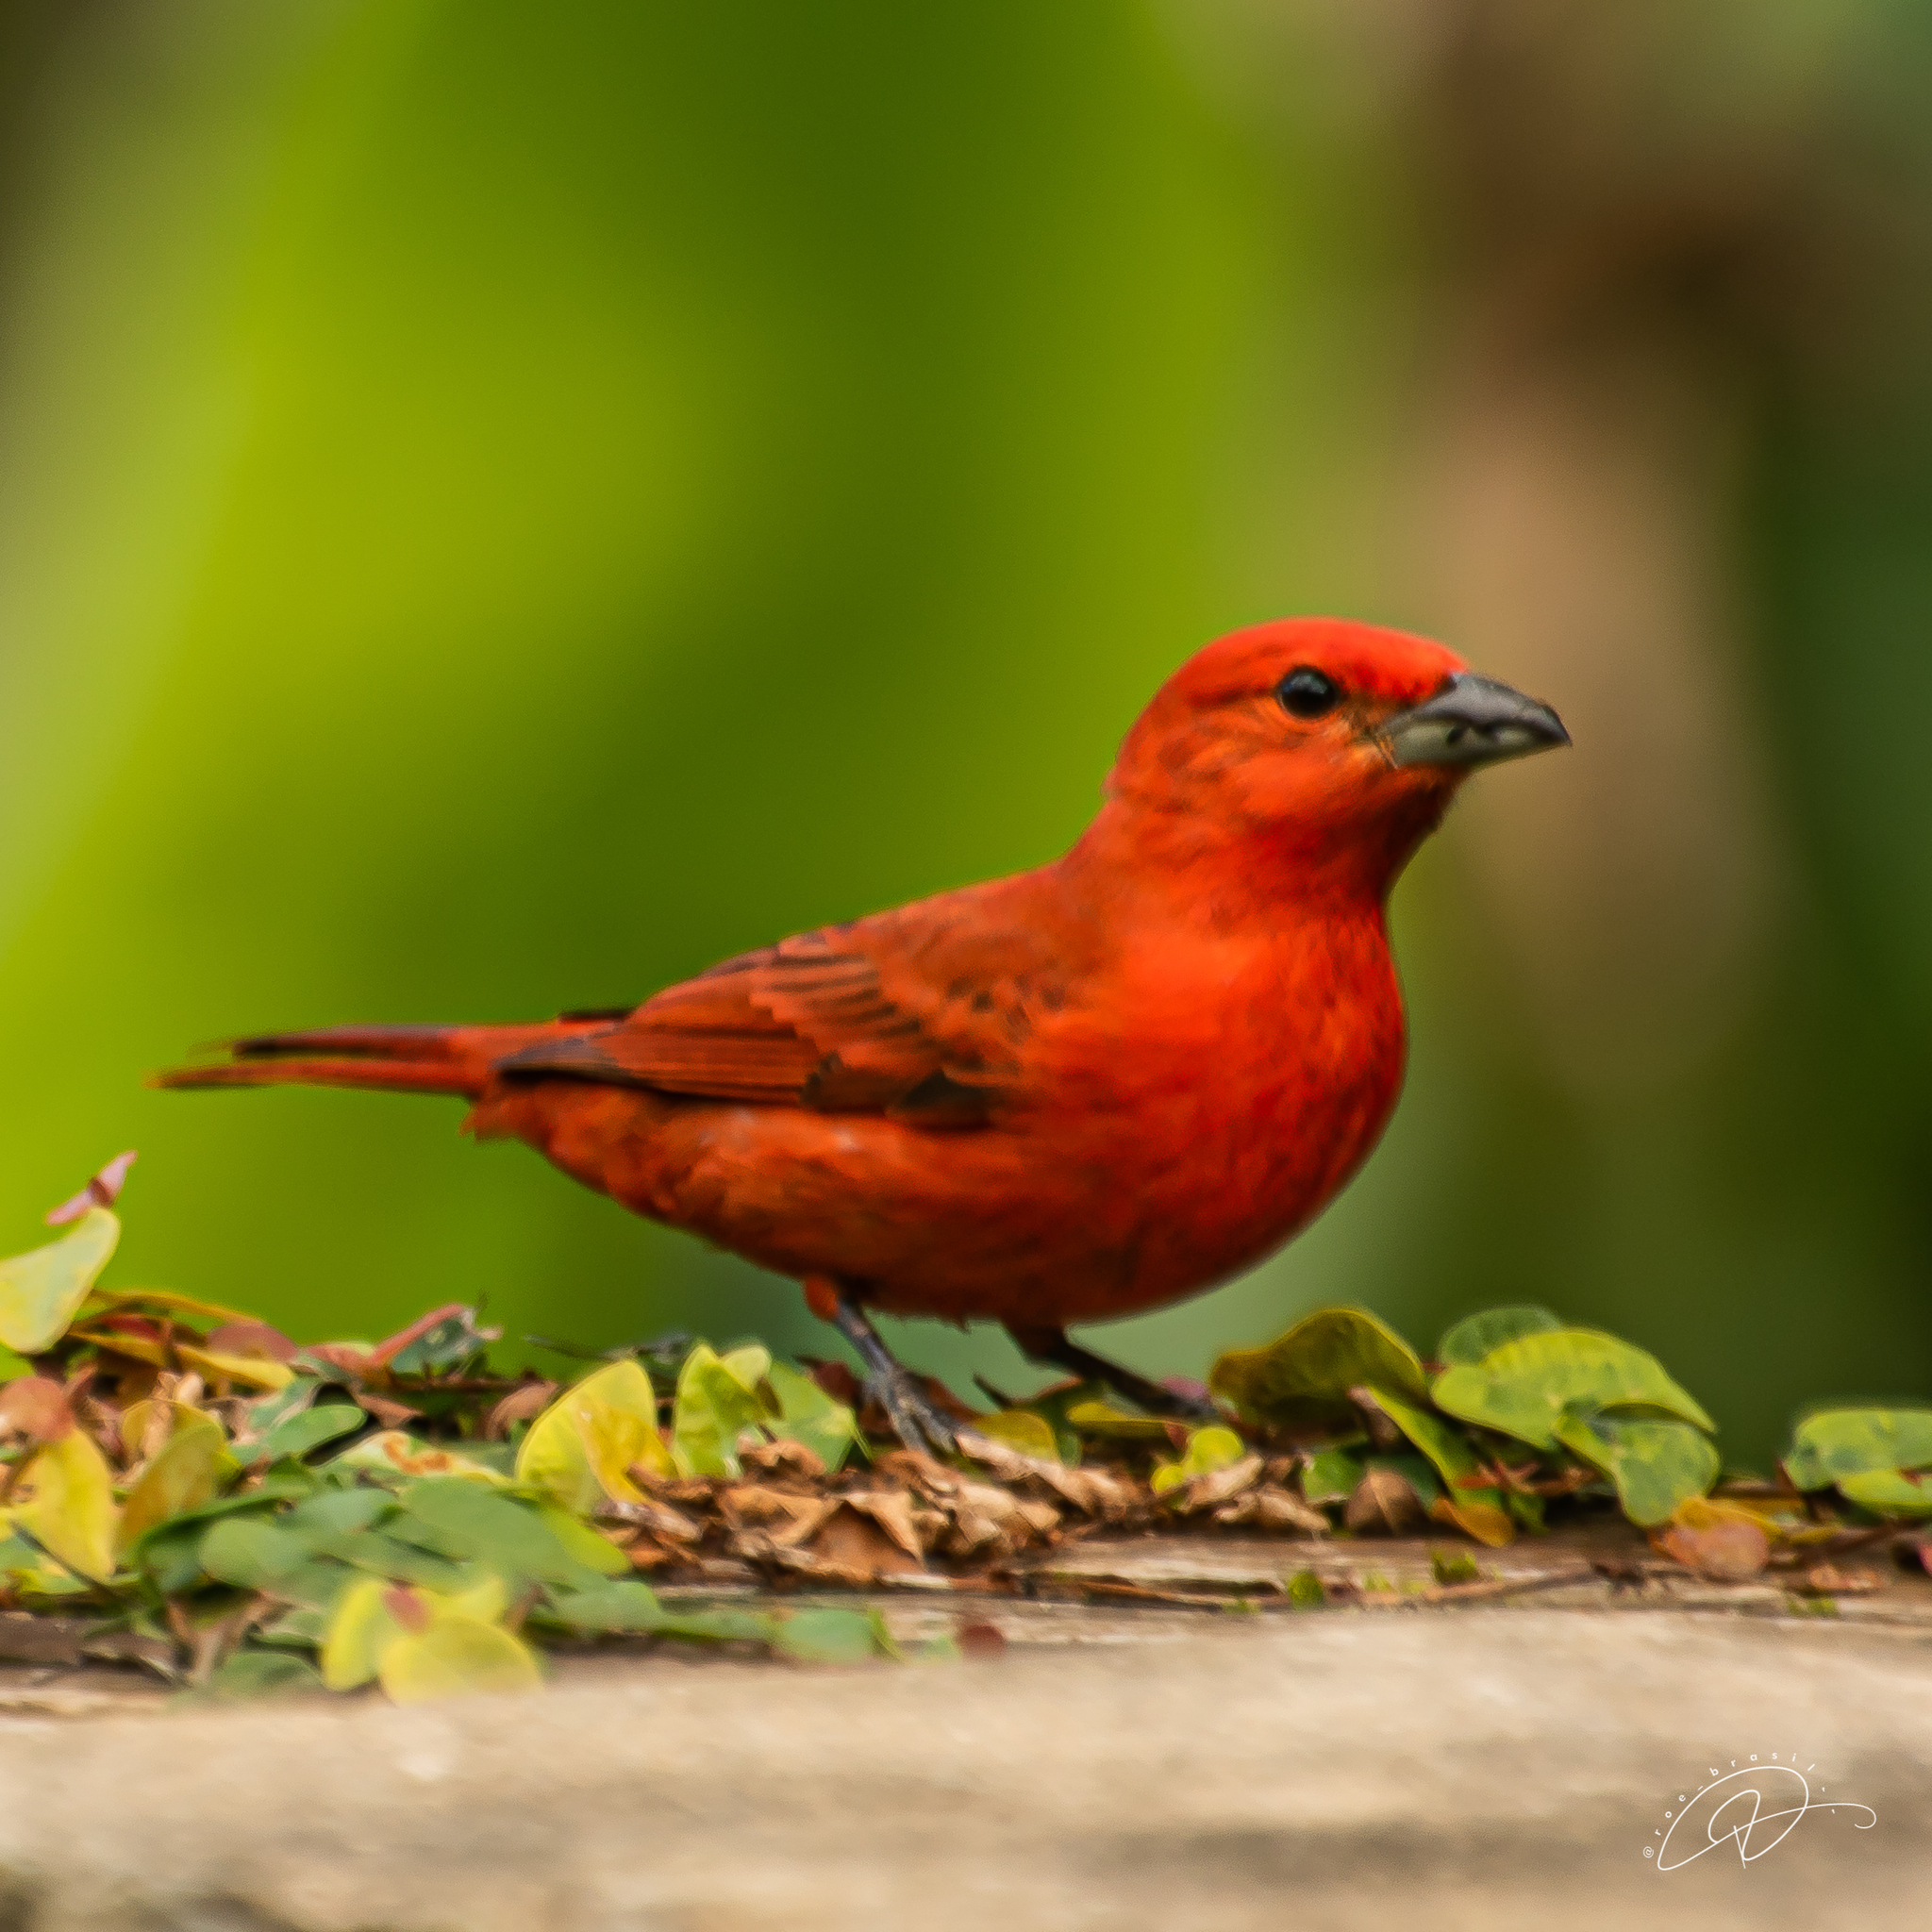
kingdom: Animalia
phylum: Chordata
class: Aves
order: Passeriformes
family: Cardinalidae
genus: Piranga
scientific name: Piranga flava
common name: Red tanager
